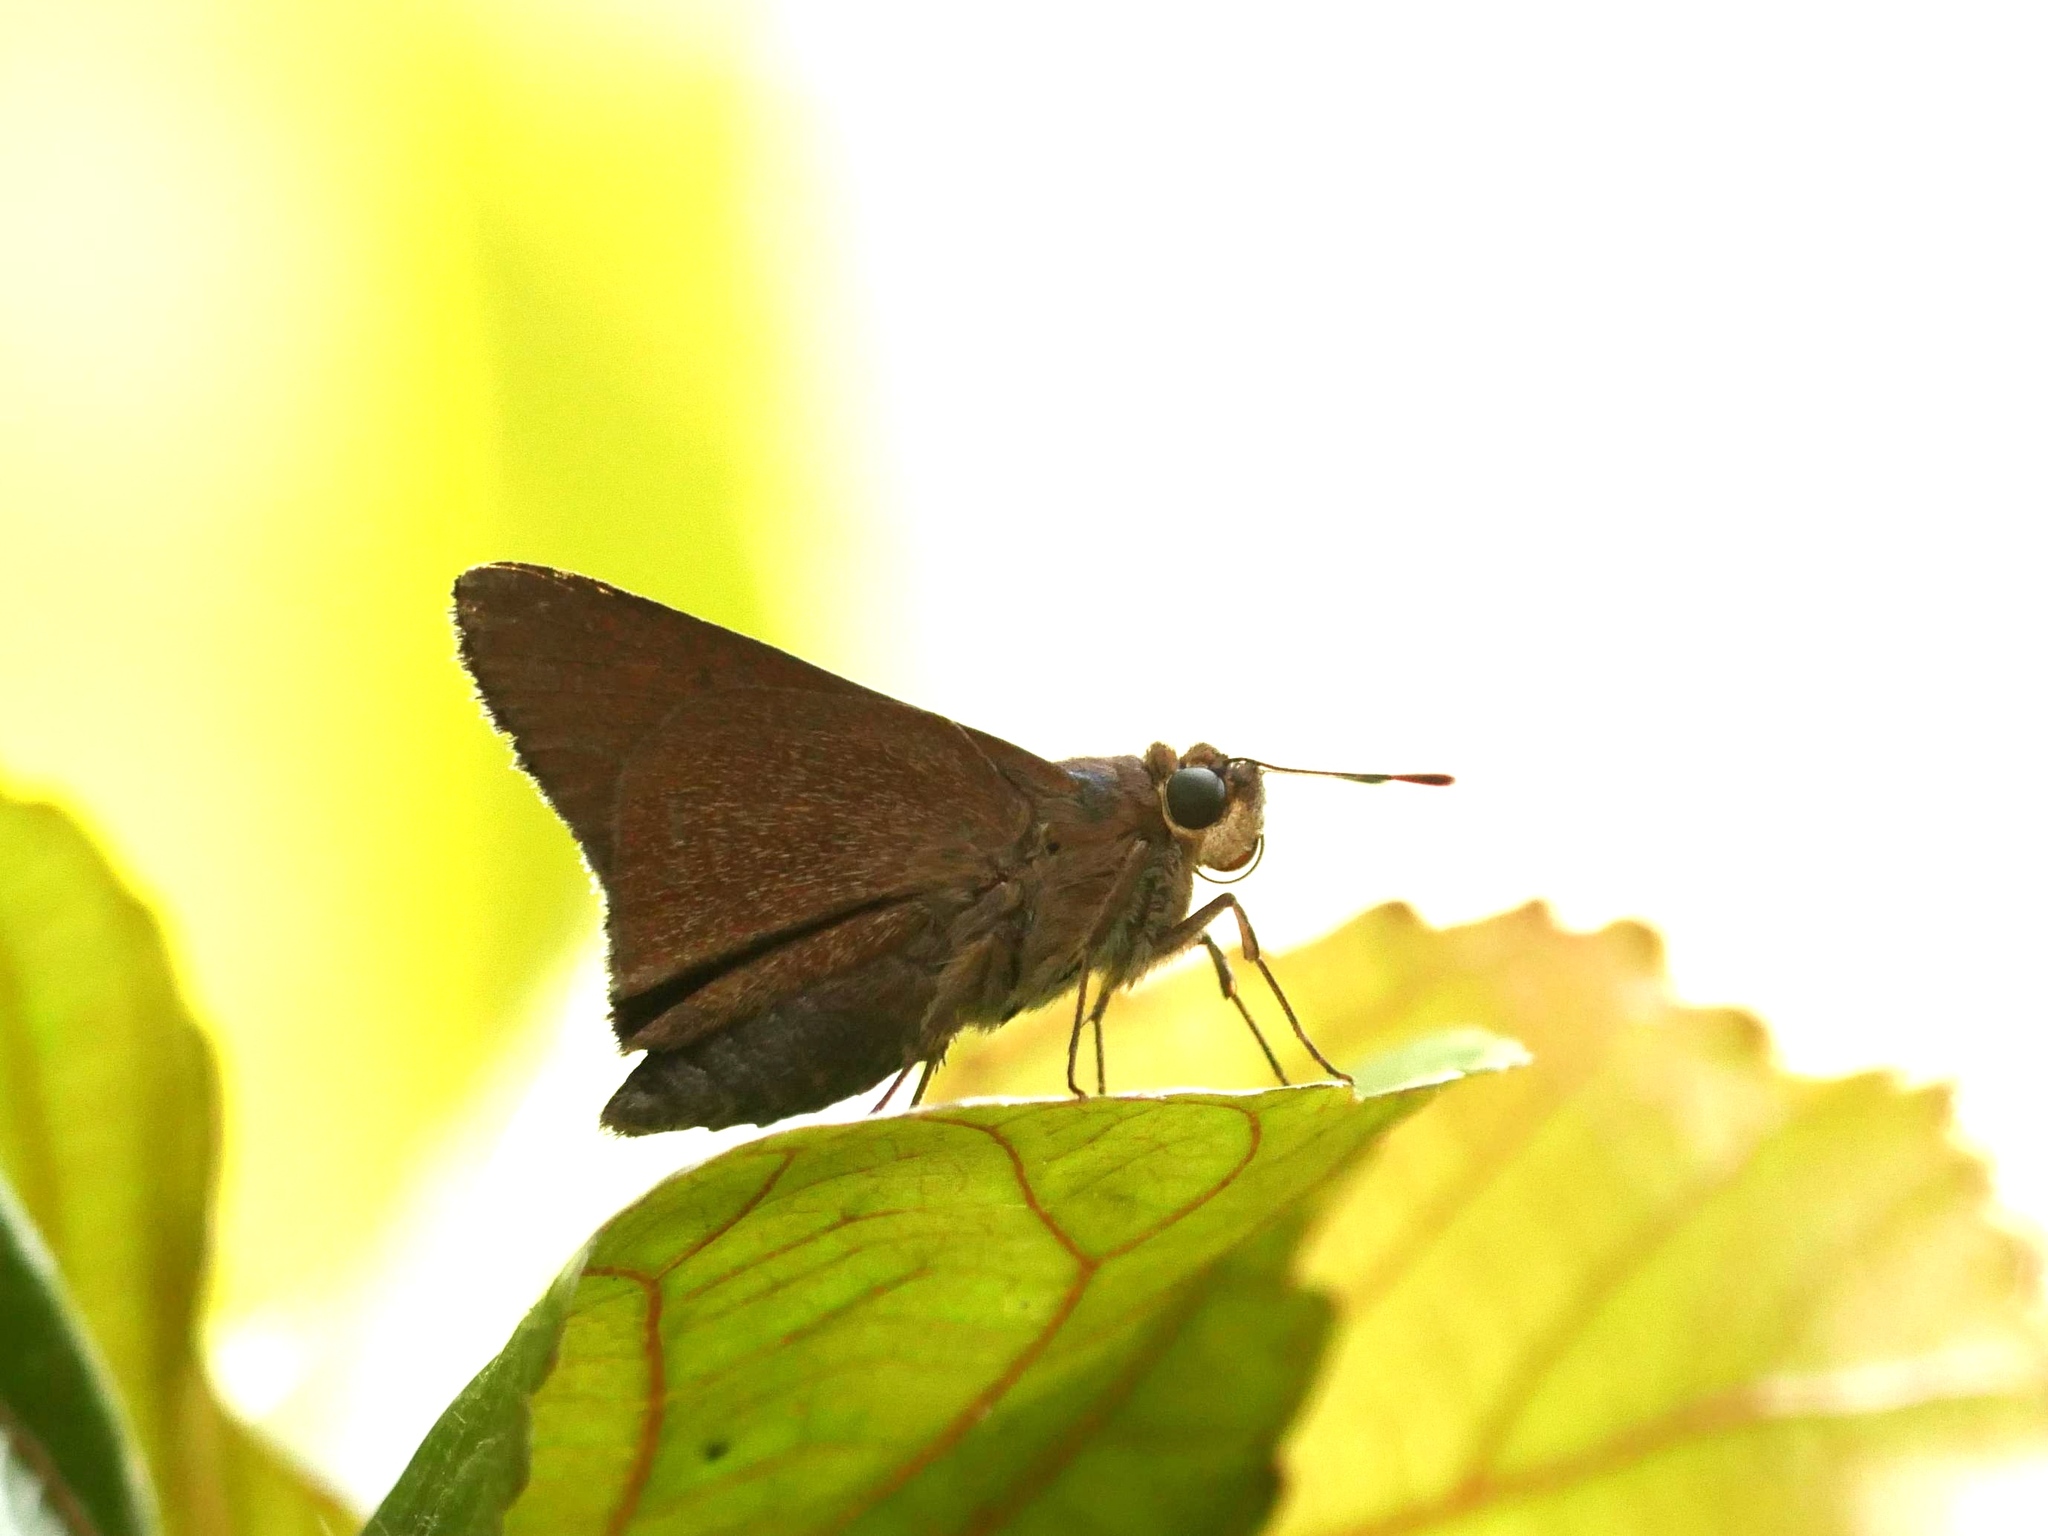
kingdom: Animalia
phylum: Arthropoda
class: Insecta
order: Lepidoptera
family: Hesperiidae
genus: Asbolis
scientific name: Asbolis capucinus
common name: Monk skipper
